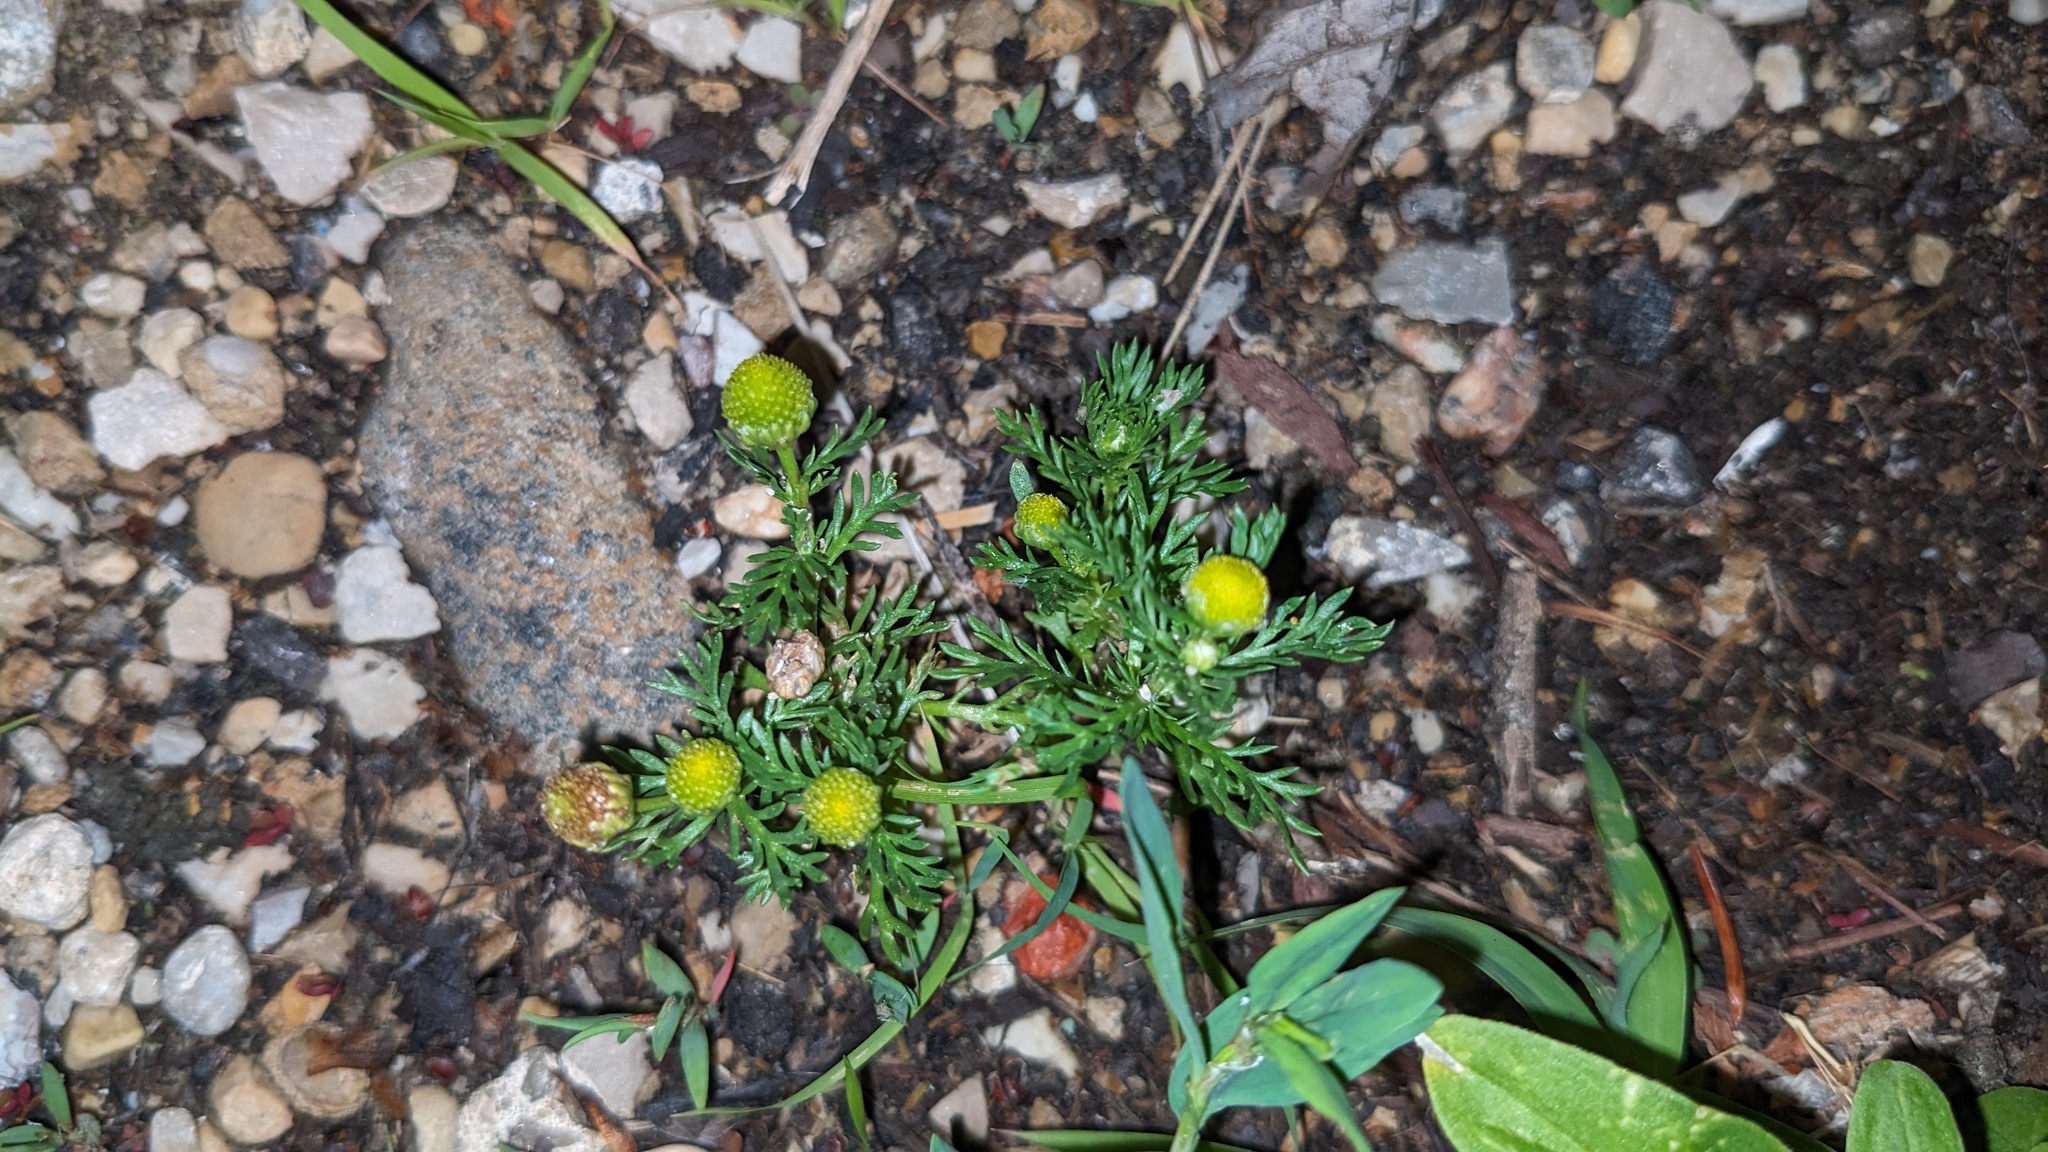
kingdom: Plantae
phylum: Tracheophyta
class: Magnoliopsida
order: Asterales
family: Asteraceae
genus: Matricaria
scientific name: Matricaria discoidea
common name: Disc mayweed
